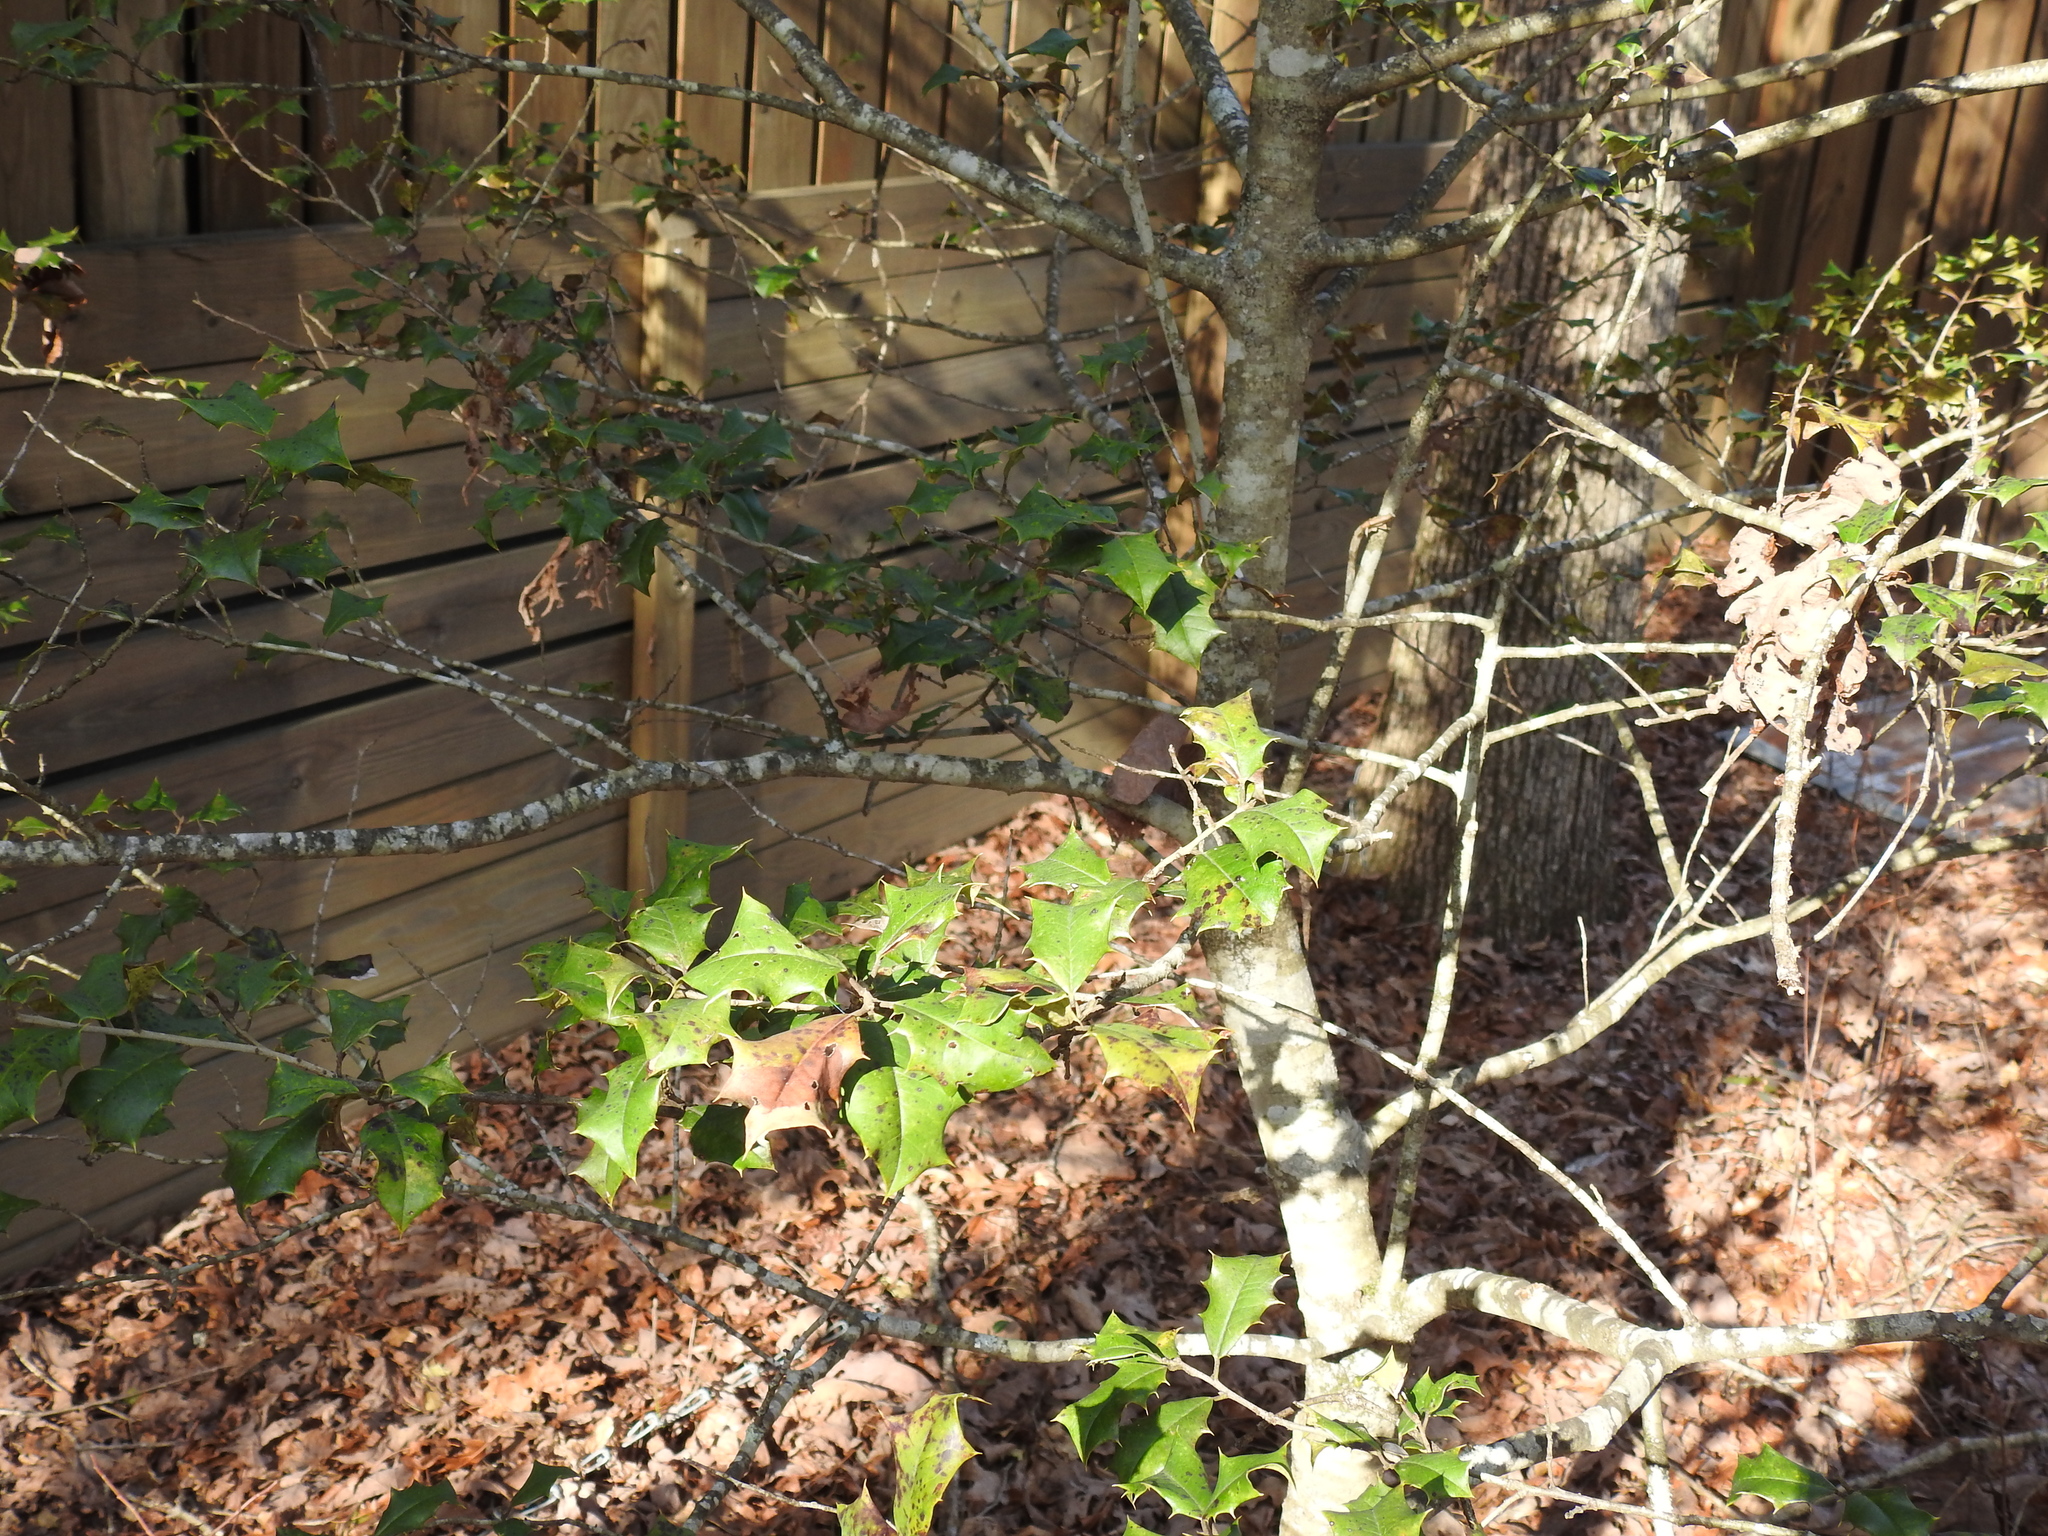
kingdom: Plantae
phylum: Tracheophyta
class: Magnoliopsida
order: Aquifoliales
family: Aquifoliaceae
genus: Ilex
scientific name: Ilex opaca
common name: American holly
